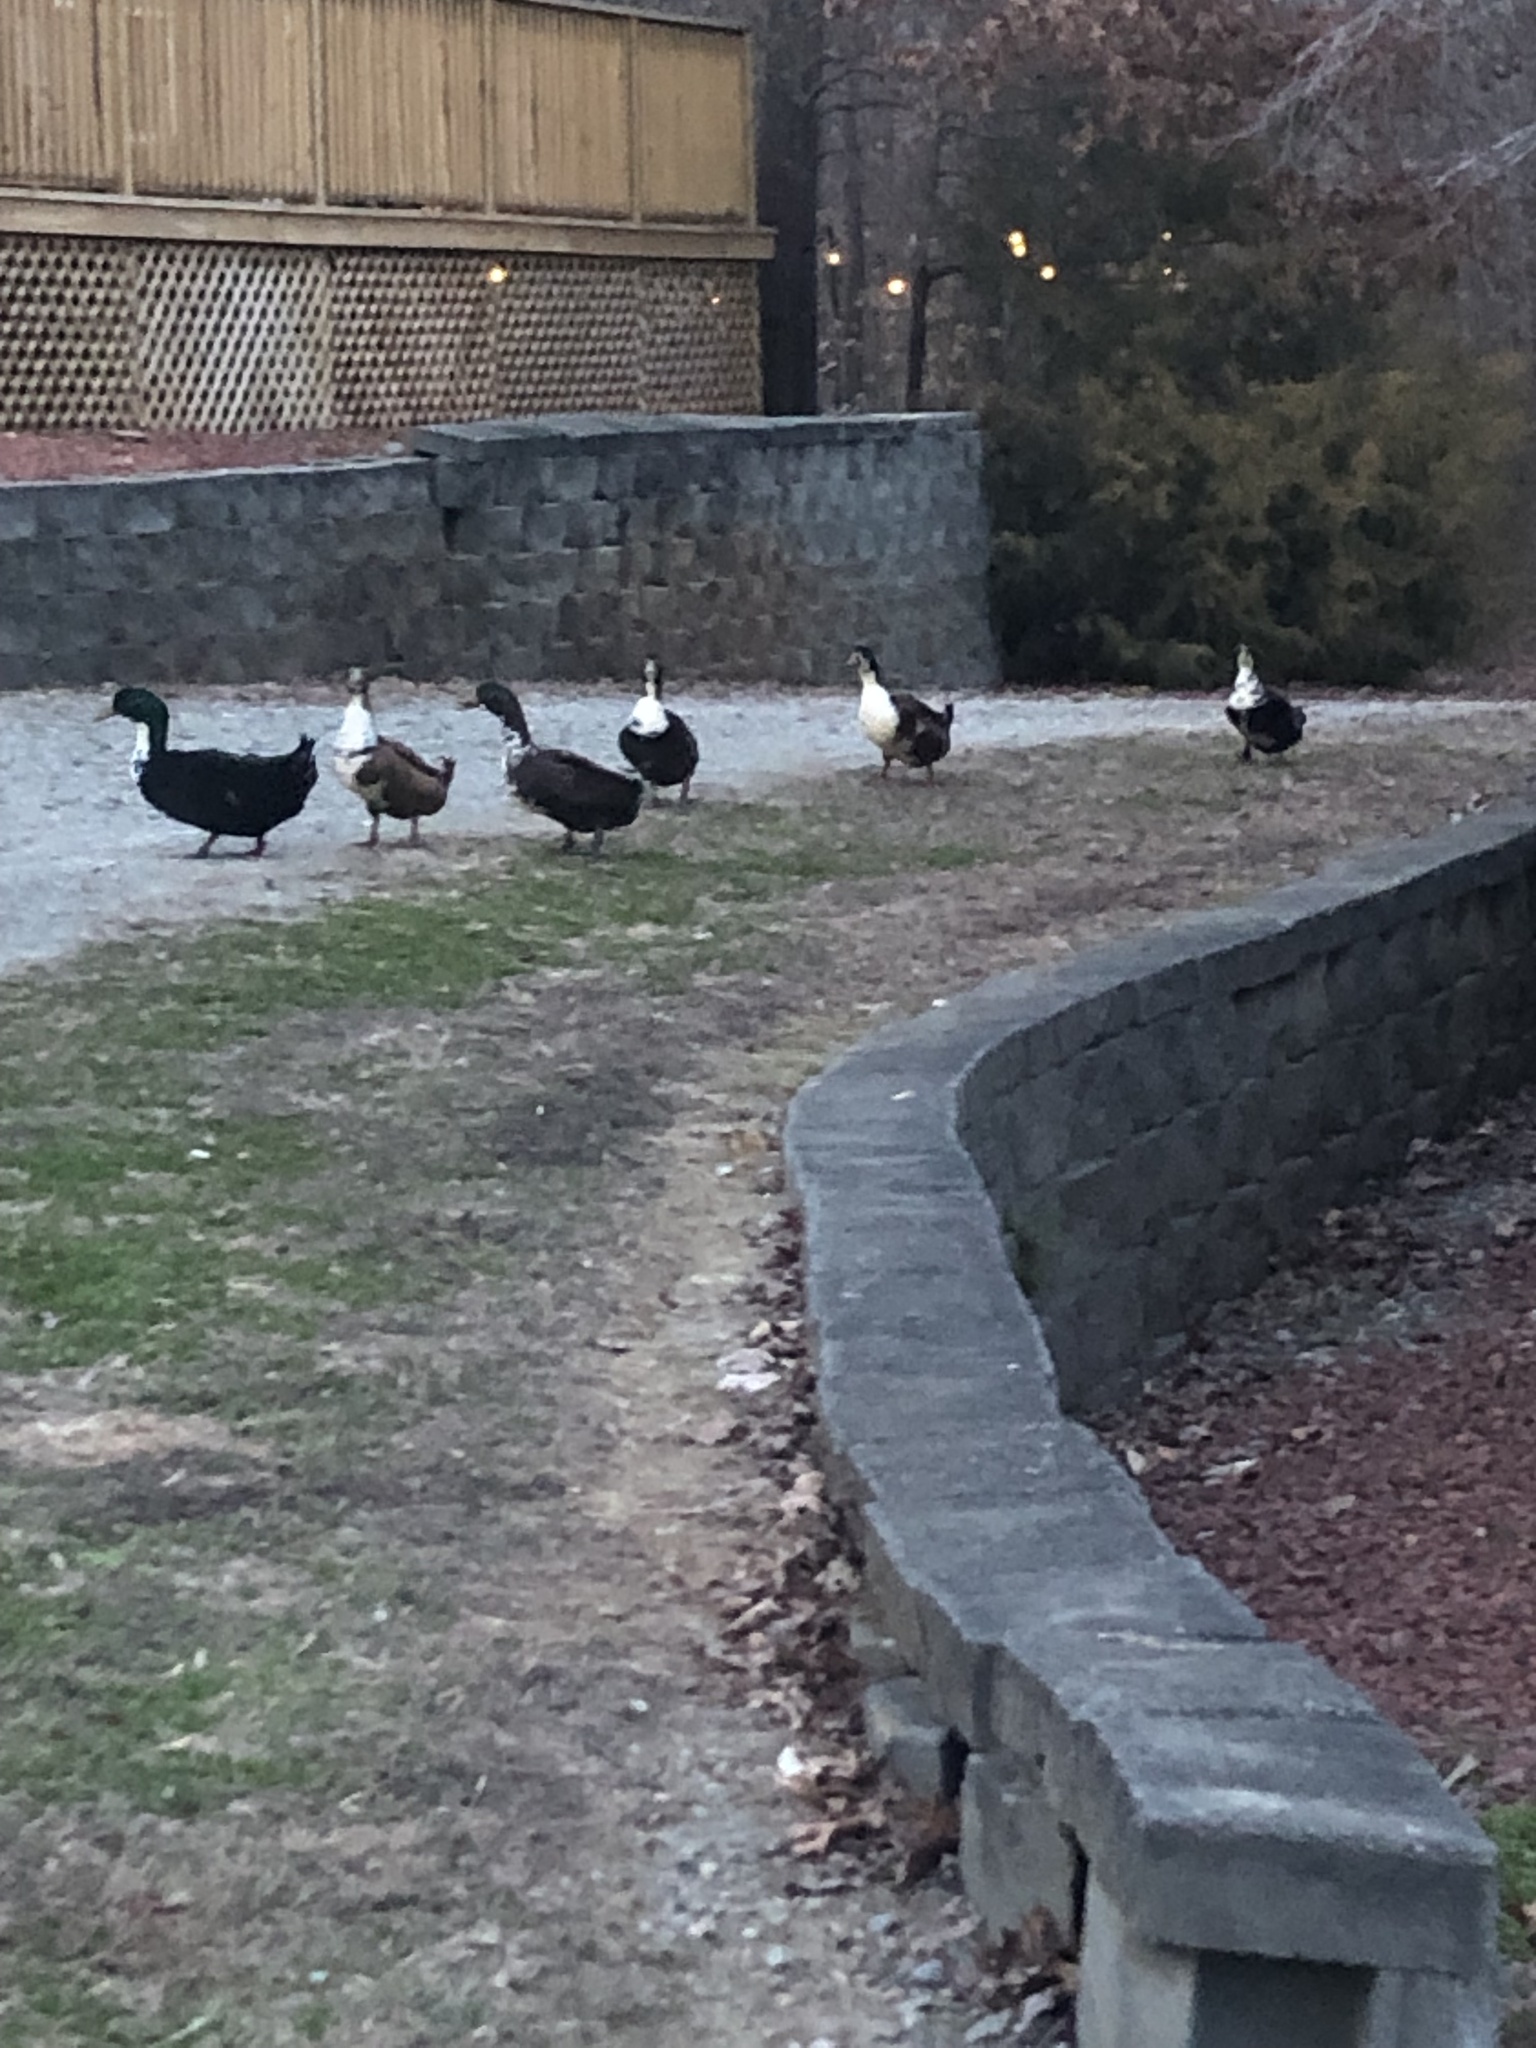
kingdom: Animalia
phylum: Chordata
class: Aves
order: Anseriformes
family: Anatidae
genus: Anas
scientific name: Anas platyrhynchos
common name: Mallard
